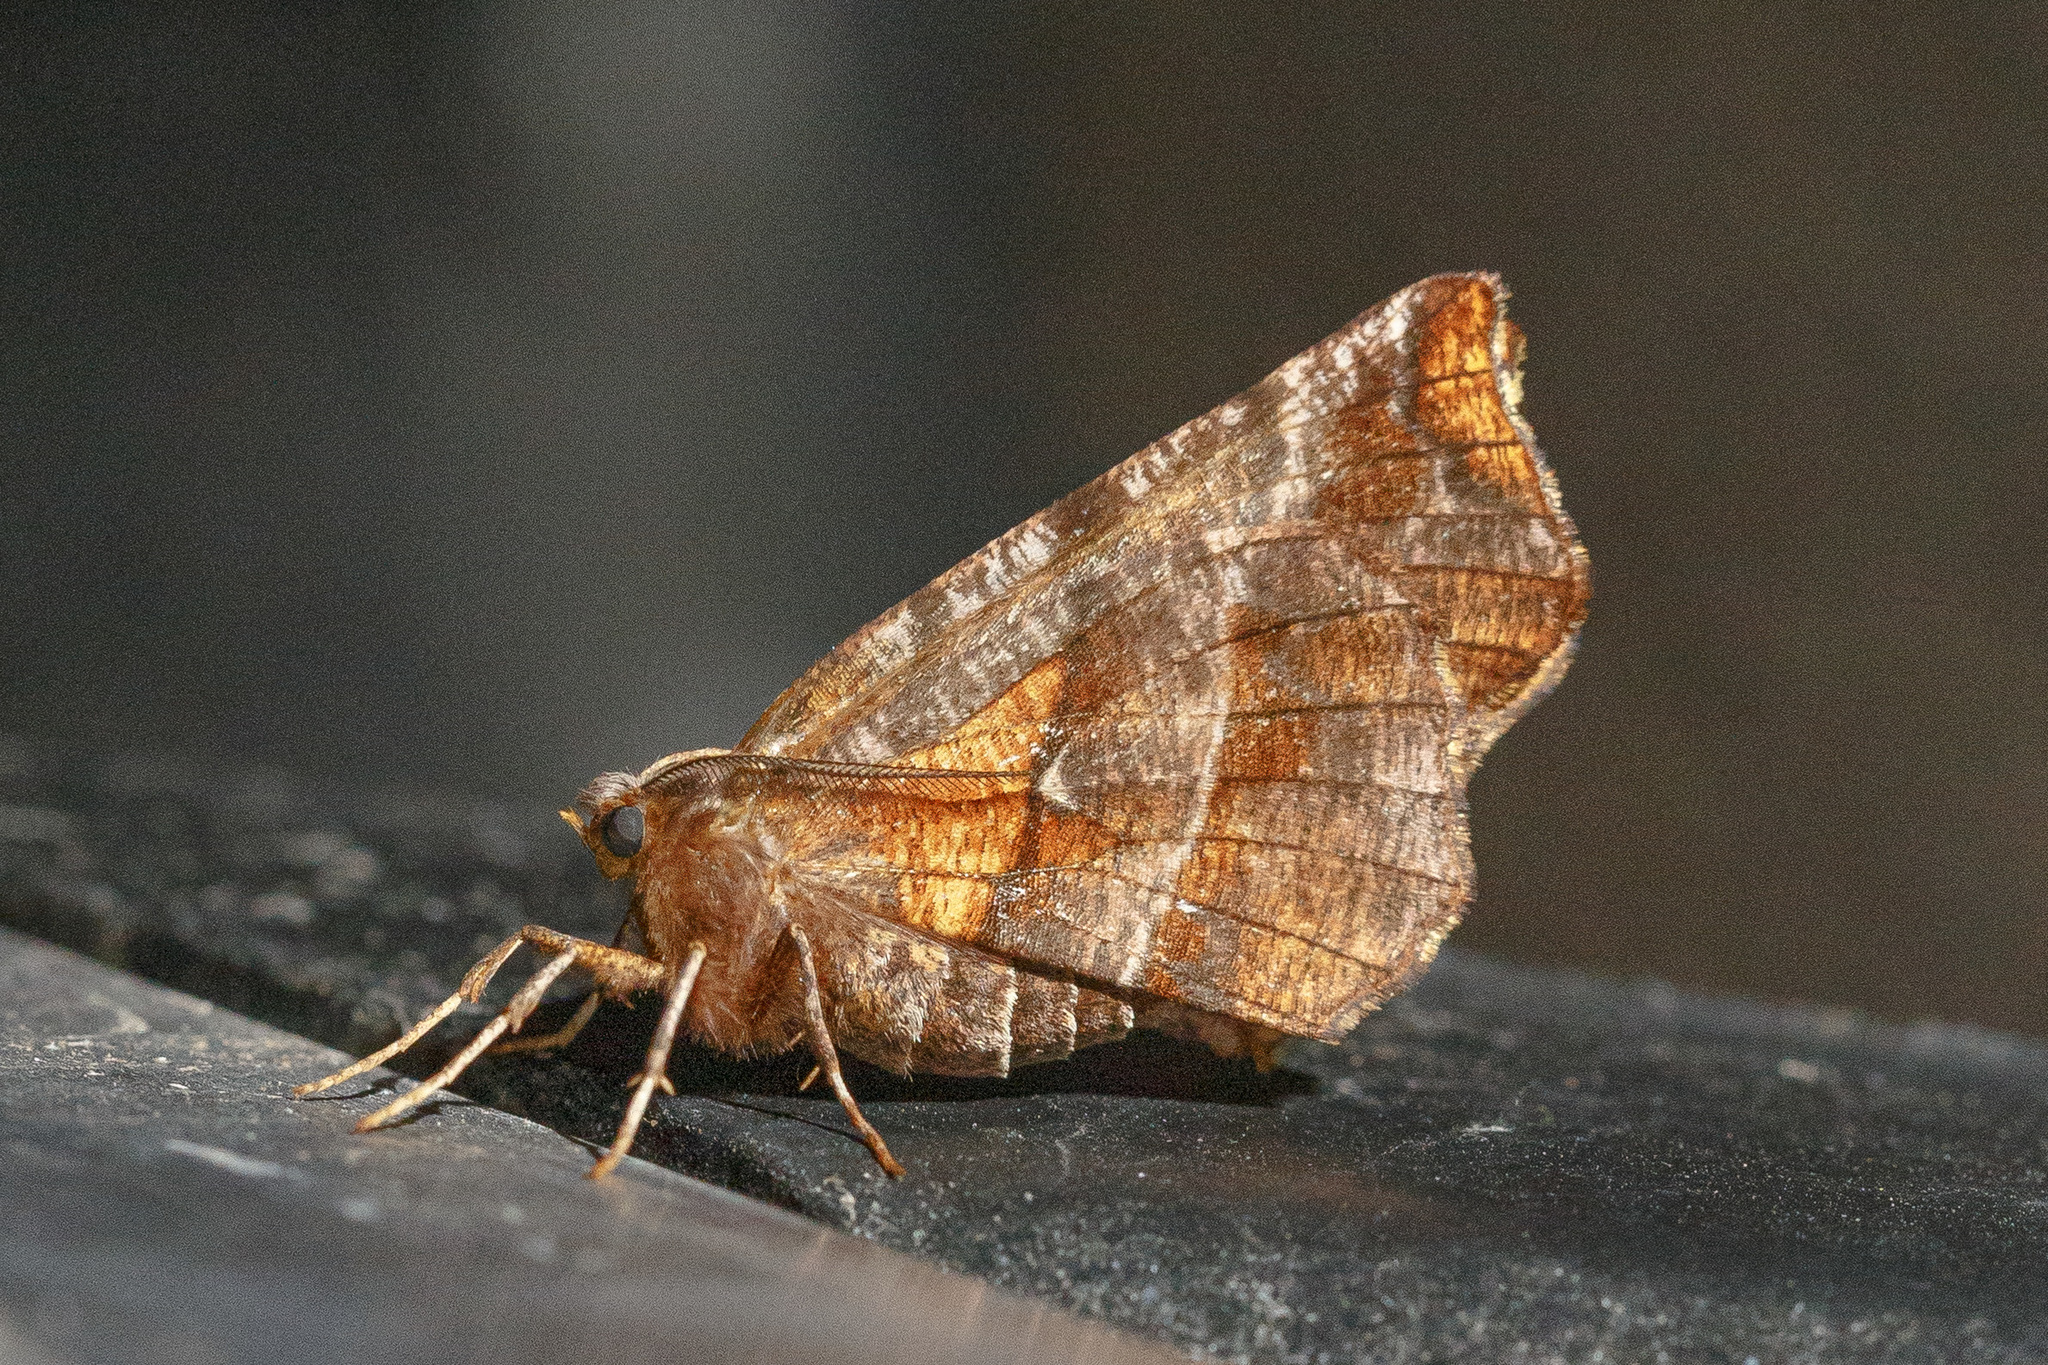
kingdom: Animalia
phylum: Arthropoda
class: Insecta
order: Lepidoptera
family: Geometridae
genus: Selenia
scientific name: Selenia alciphearia
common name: Brown-tipped thorn
